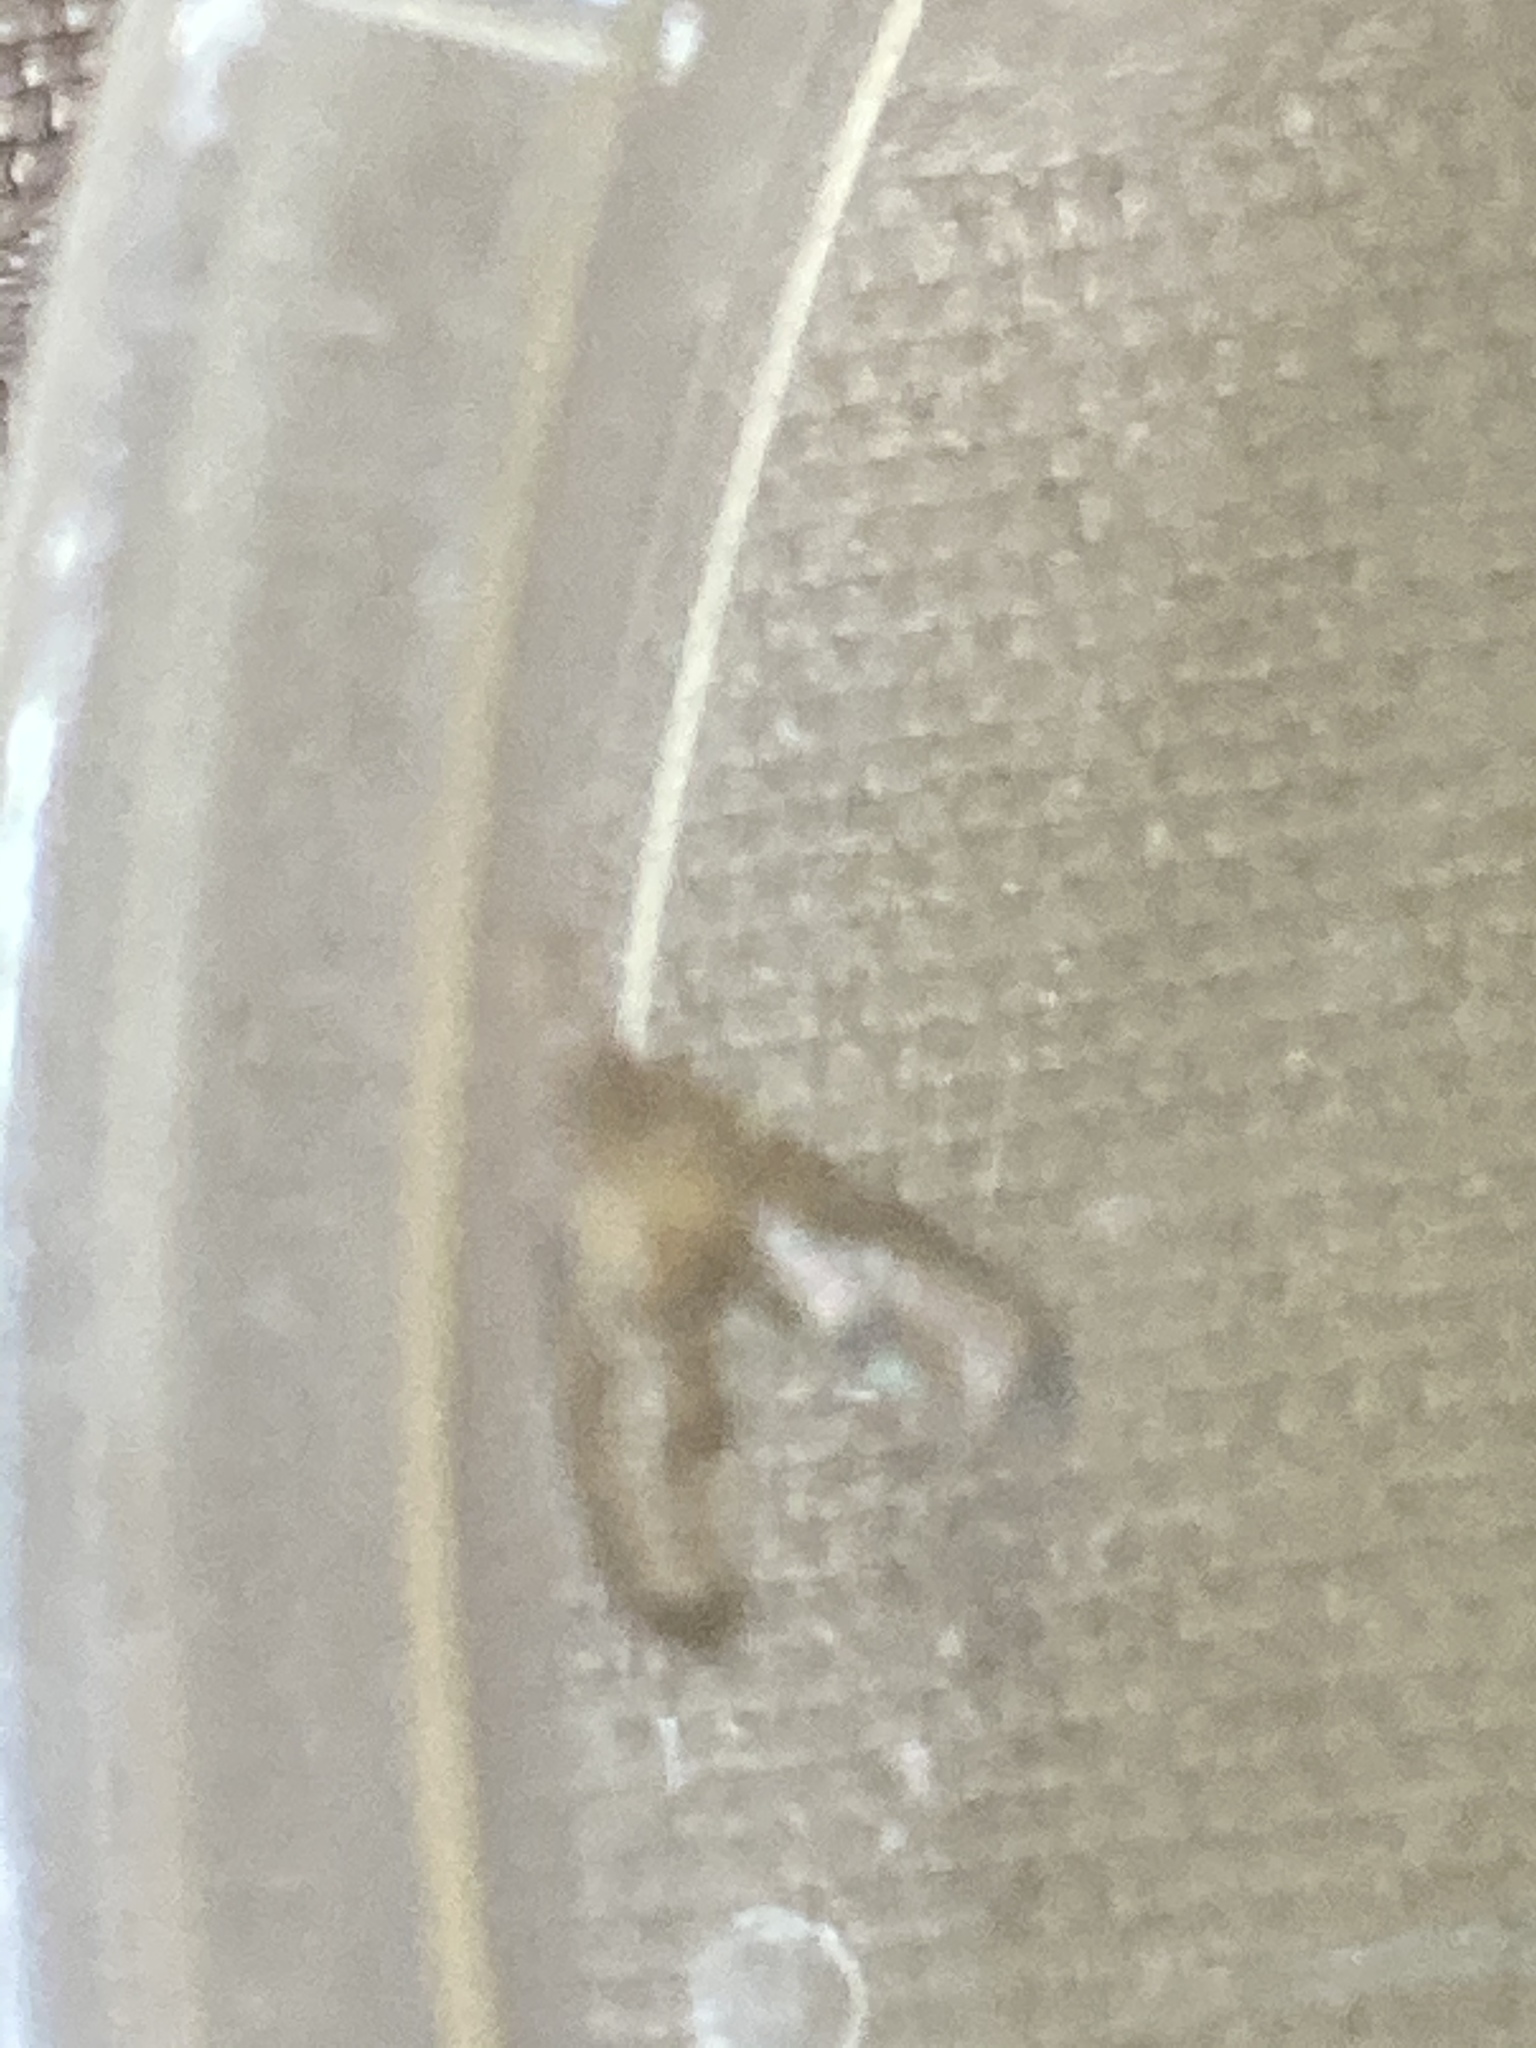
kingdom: Animalia
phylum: Arthropoda
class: Insecta
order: Diptera
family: Pallopteridae
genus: Toxonevra
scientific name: Toxonevra muliebris
